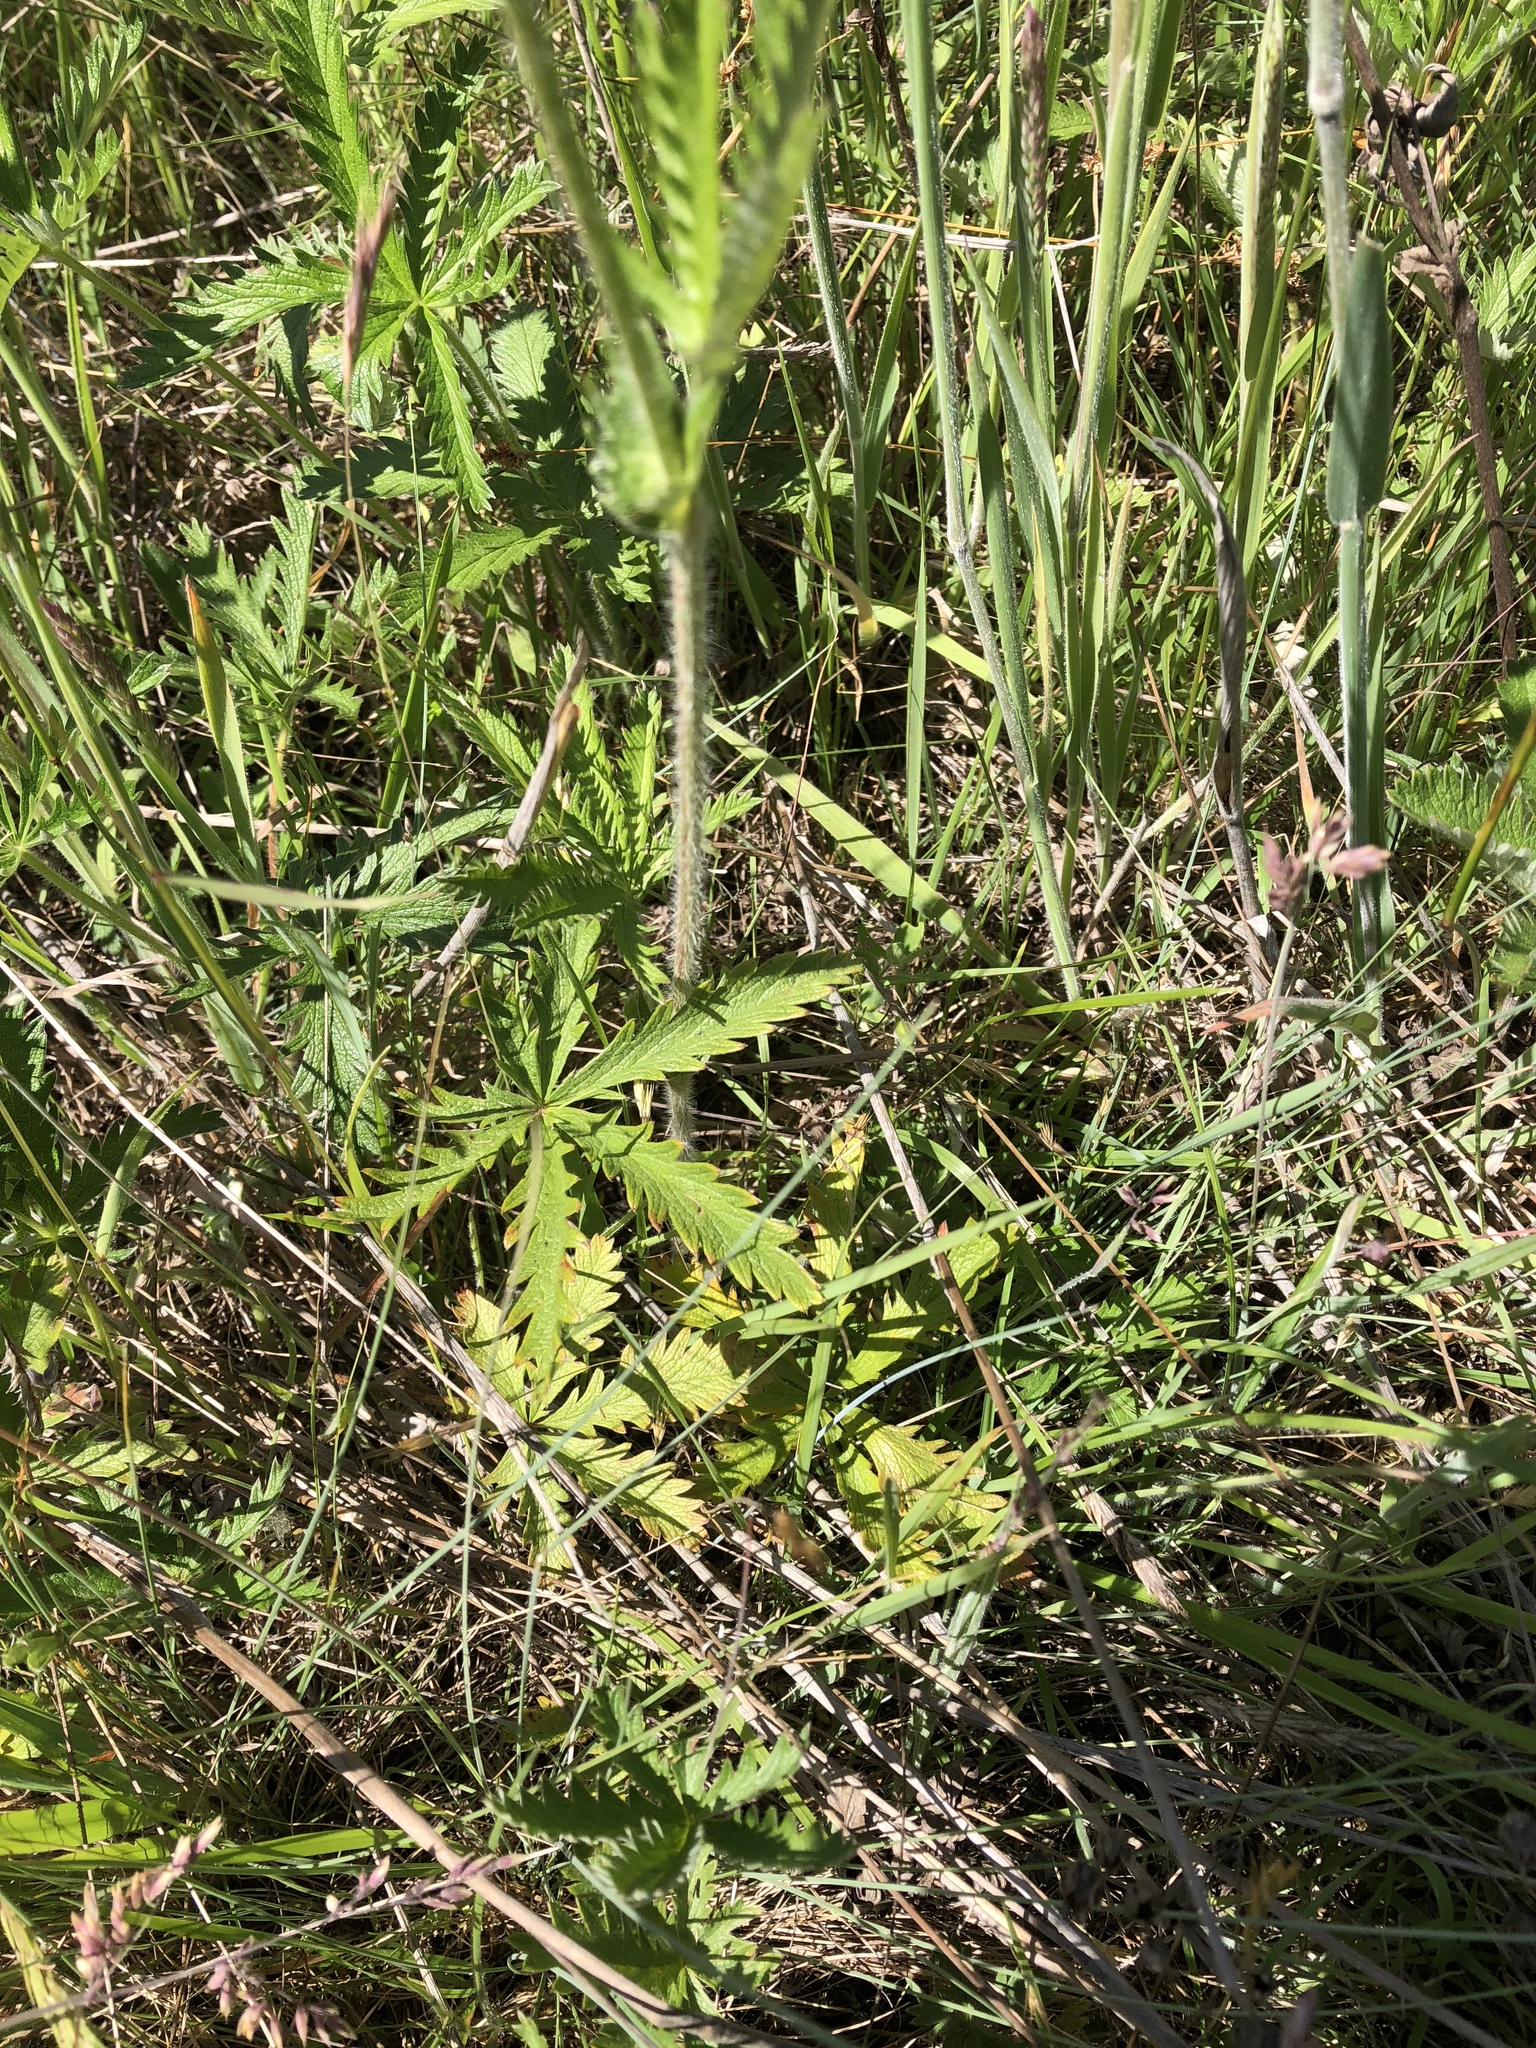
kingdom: Plantae
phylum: Tracheophyta
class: Magnoliopsida
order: Rosales
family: Rosaceae
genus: Potentilla
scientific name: Potentilla gracilis
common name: Graceful cinquefoil
